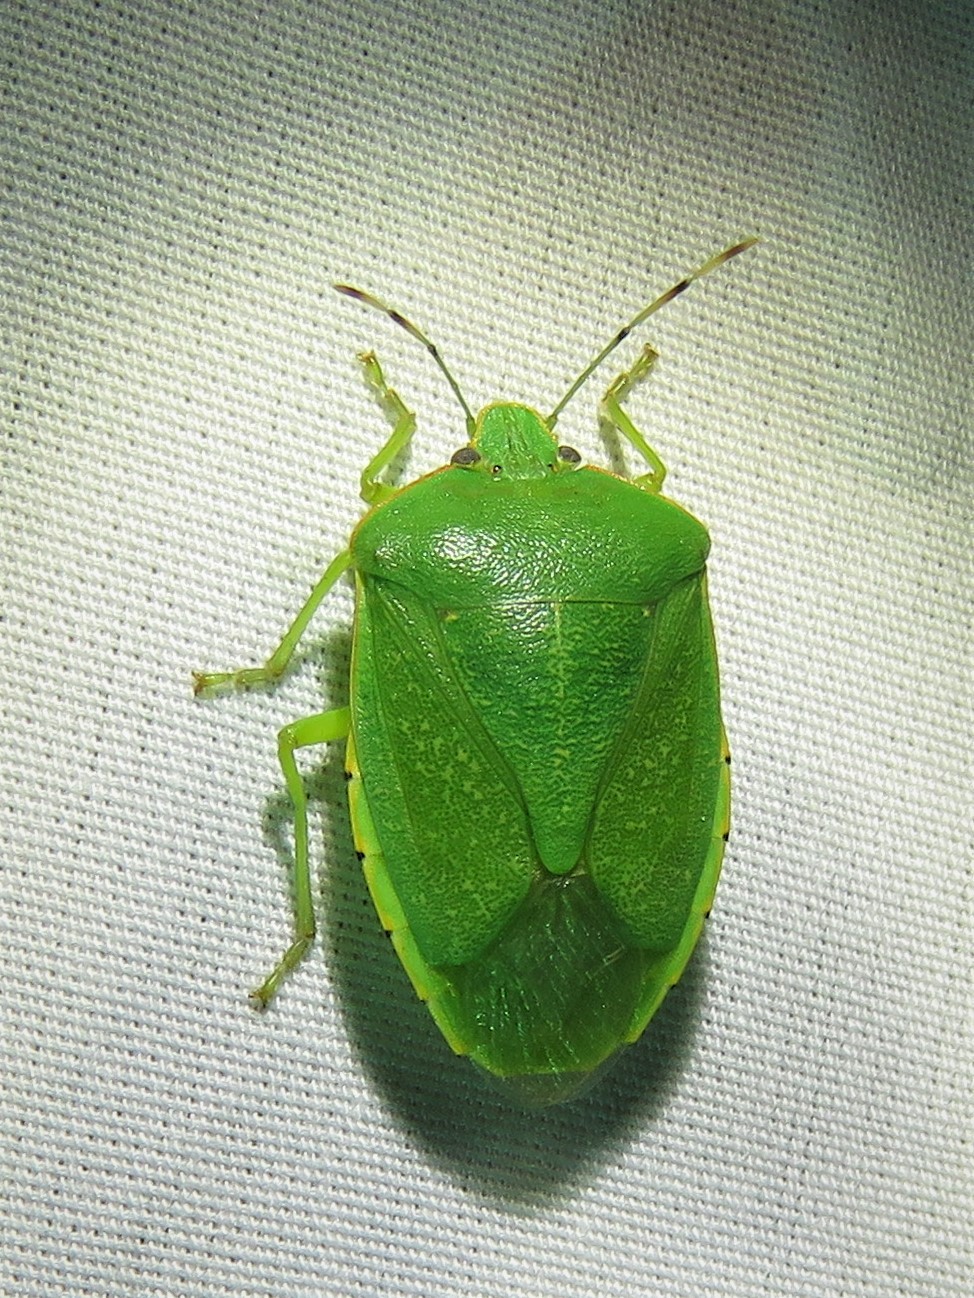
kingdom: Animalia
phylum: Arthropoda
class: Insecta
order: Hemiptera
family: Pentatomidae
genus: Chinavia
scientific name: Chinavia hilaris
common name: Green stink bug
